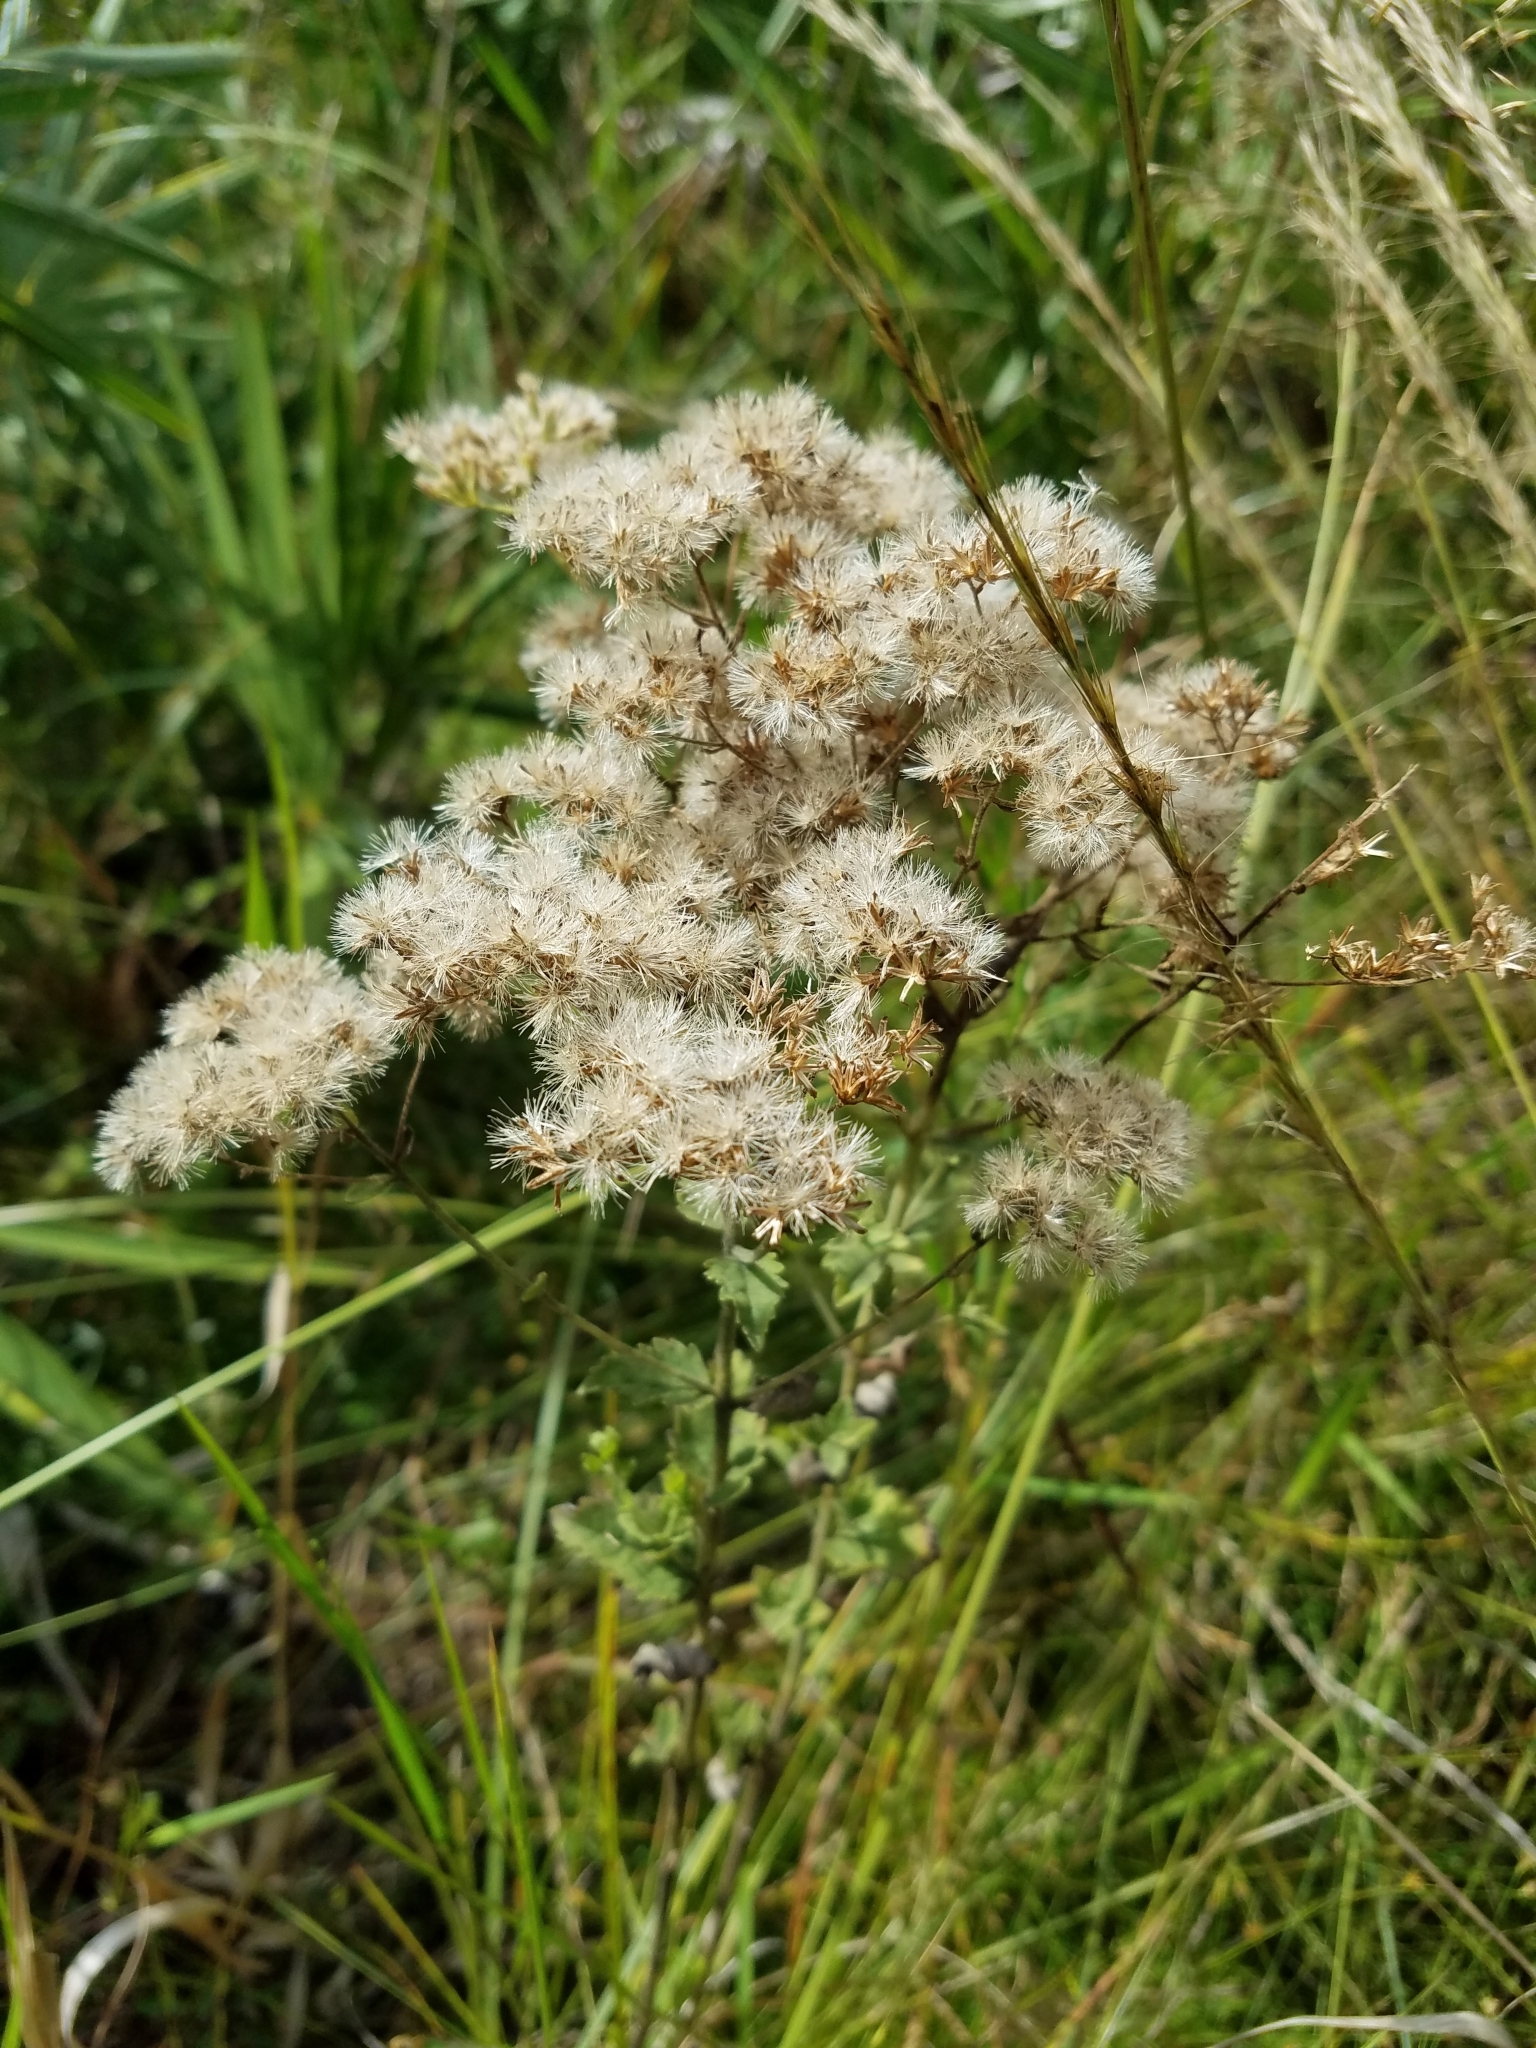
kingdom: Plantae
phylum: Tracheophyta
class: Magnoliopsida
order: Asterales
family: Asteraceae
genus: Eupatorium
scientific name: Eupatorium rotundifolium
